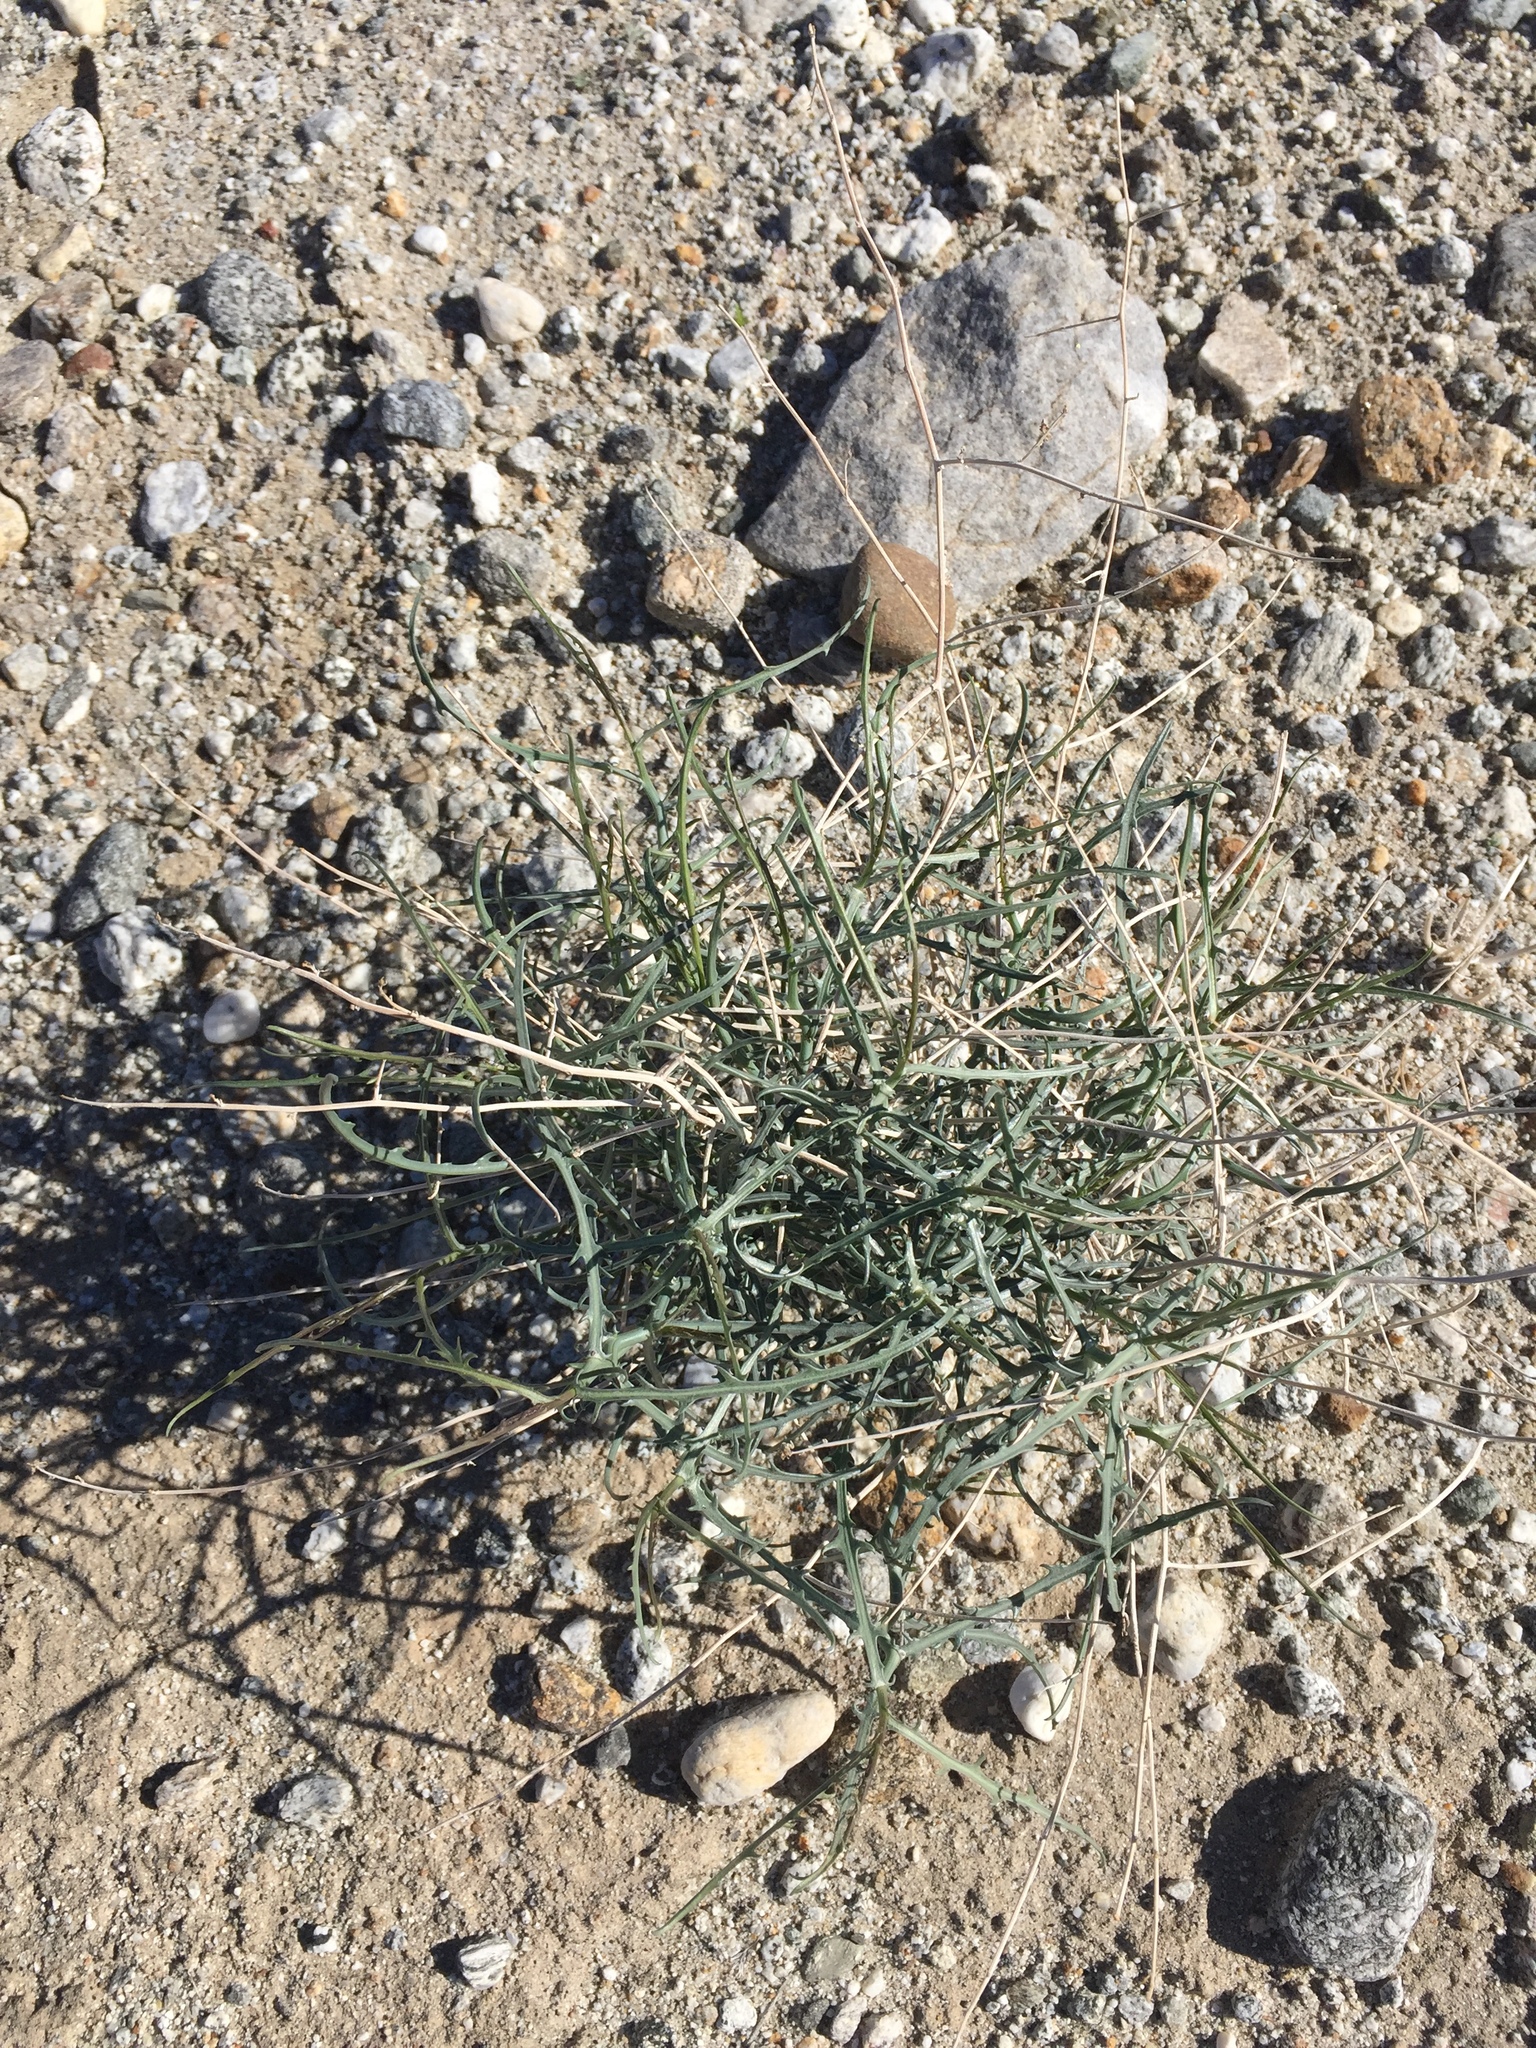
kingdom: Plantae
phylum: Tracheophyta
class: Magnoliopsida
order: Asterales
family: Asteraceae
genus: Stephanomeria
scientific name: Stephanomeria pauciflora
